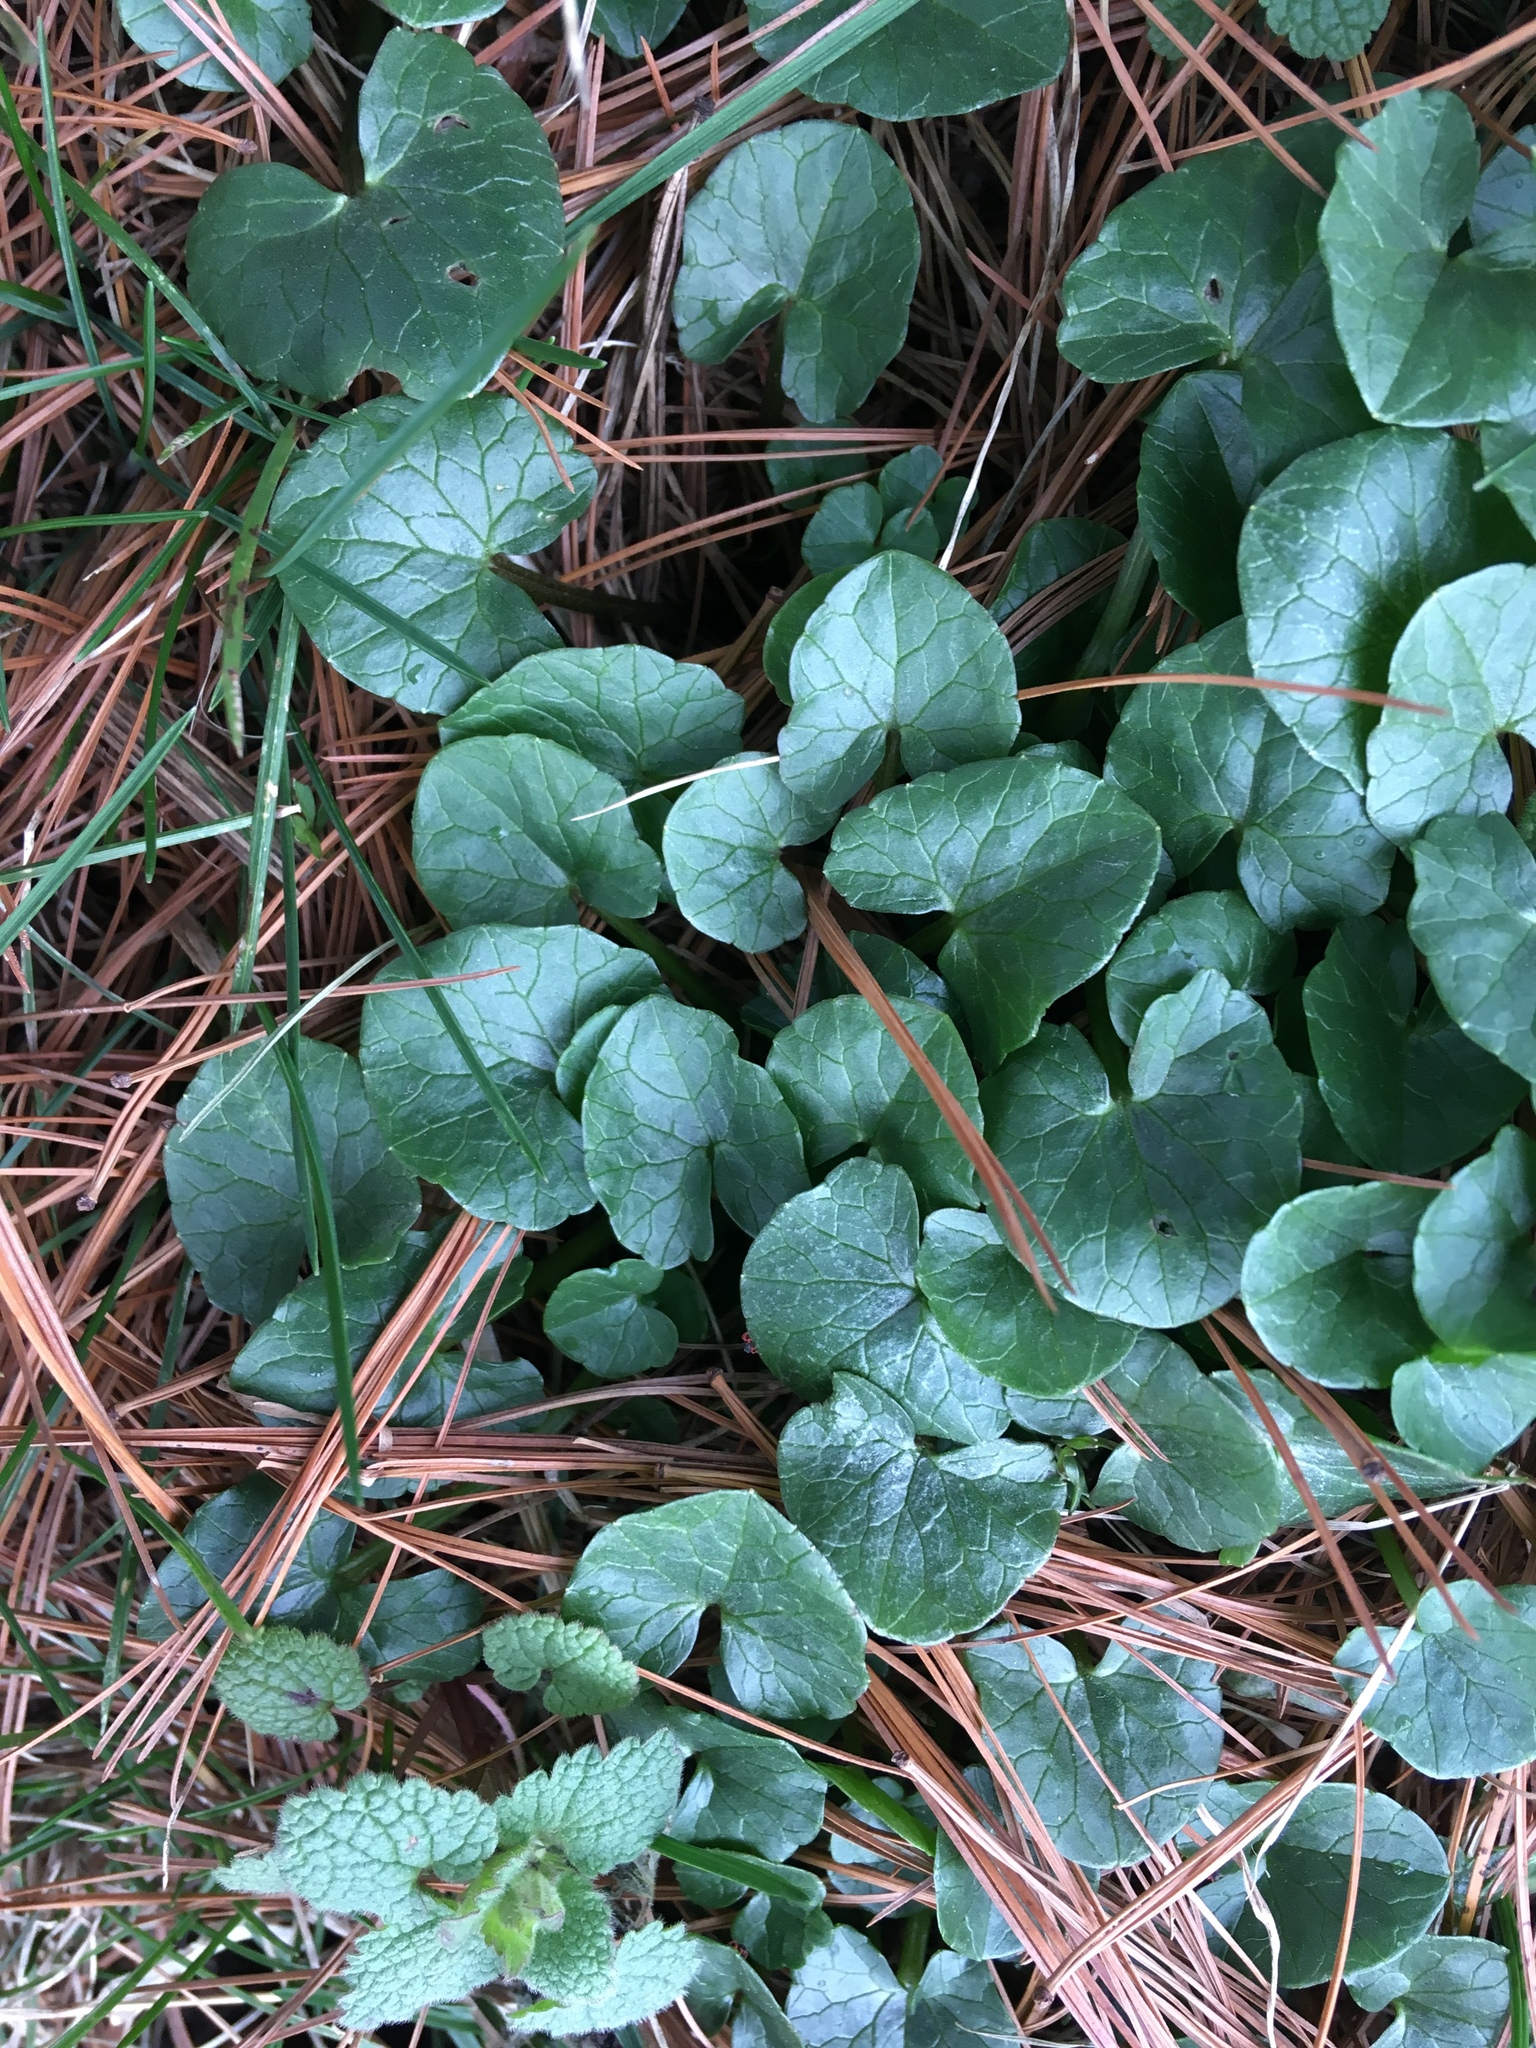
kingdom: Plantae
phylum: Tracheophyta
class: Magnoliopsida
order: Ranunculales
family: Ranunculaceae
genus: Ficaria
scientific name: Ficaria verna
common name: Lesser celandine
